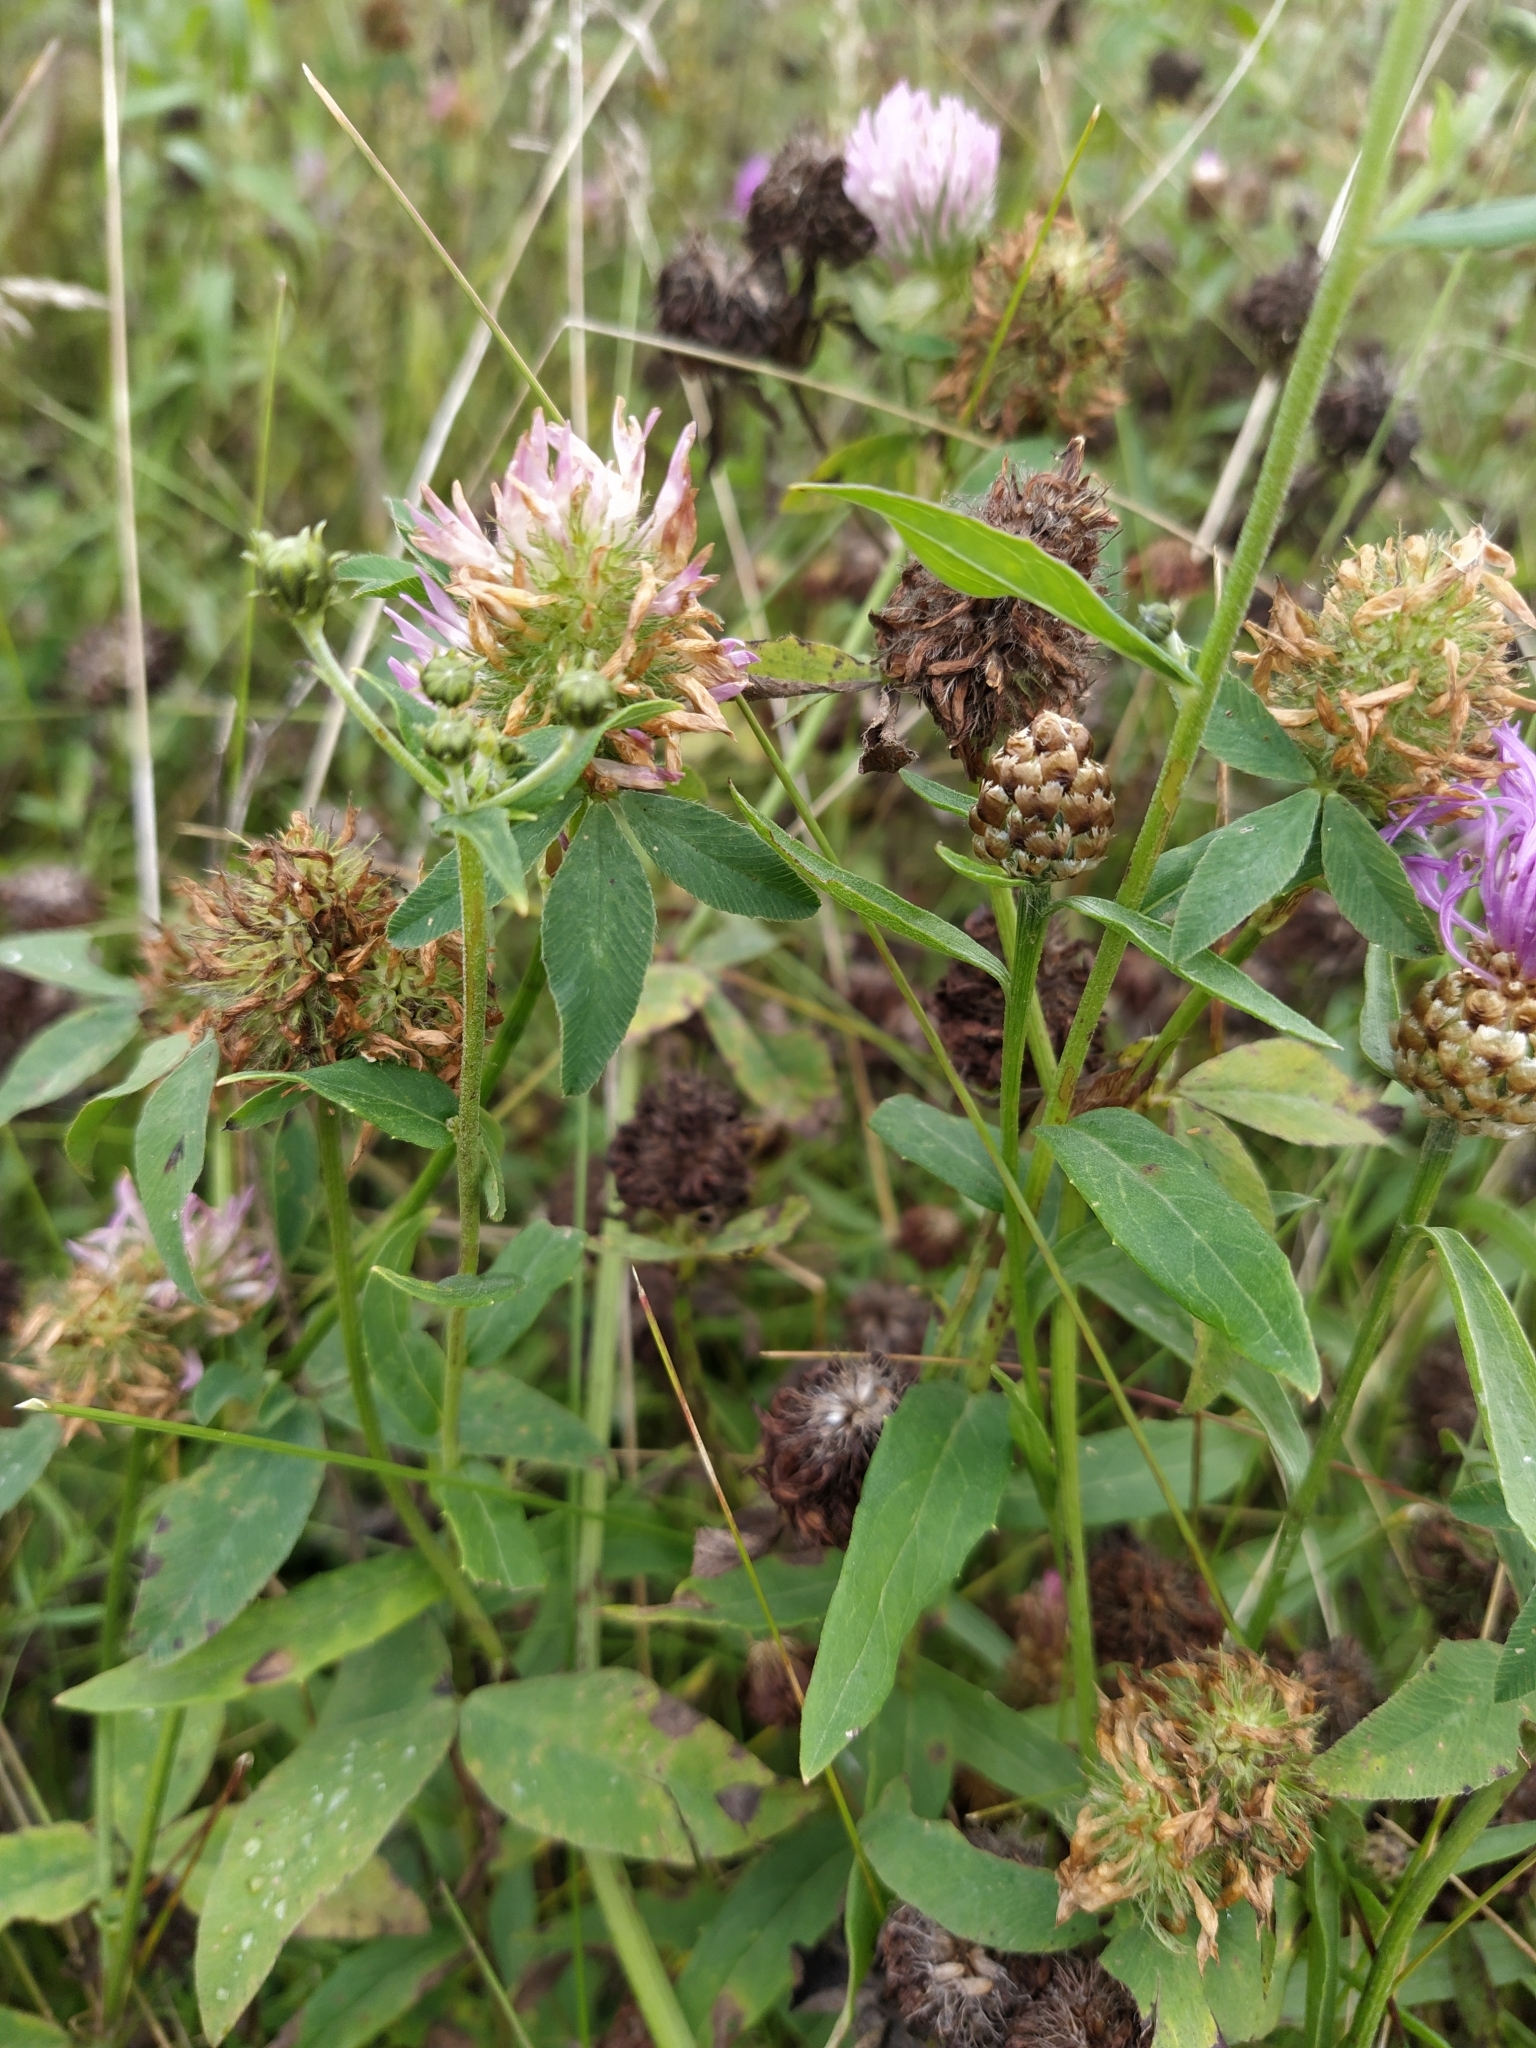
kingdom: Plantae
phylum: Tracheophyta
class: Magnoliopsida
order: Fabales
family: Fabaceae
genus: Trifolium
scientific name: Trifolium pratense
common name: Red clover
